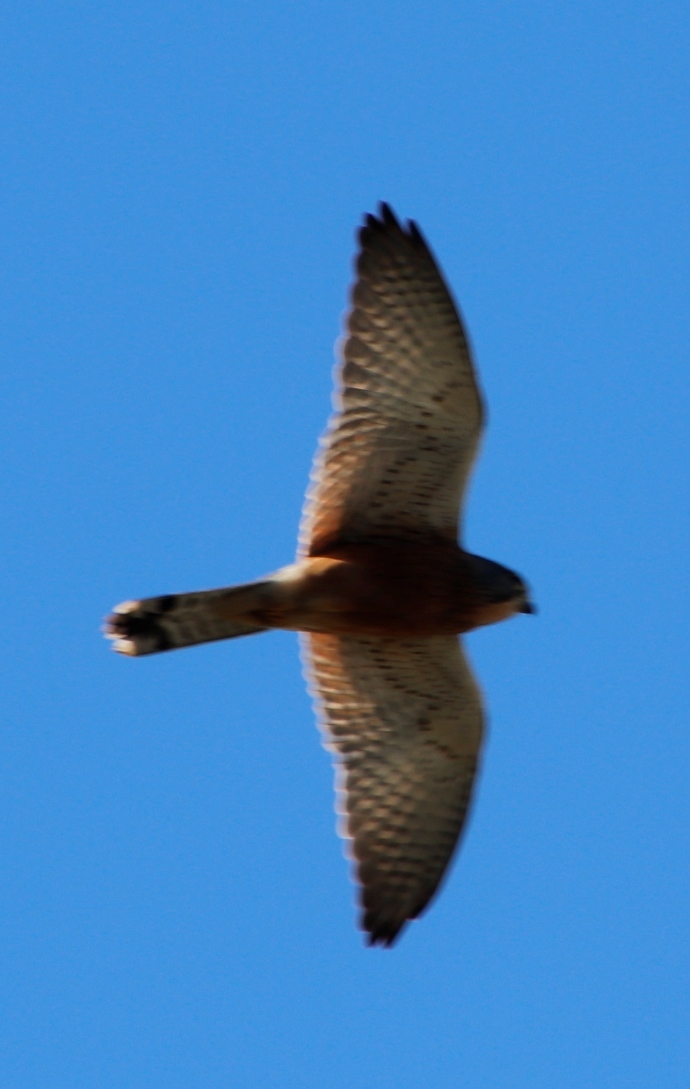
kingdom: Animalia
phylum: Chordata
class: Aves
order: Falconiformes
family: Falconidae
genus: Falco
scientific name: Falco rupicolus
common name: Rock kestrel
